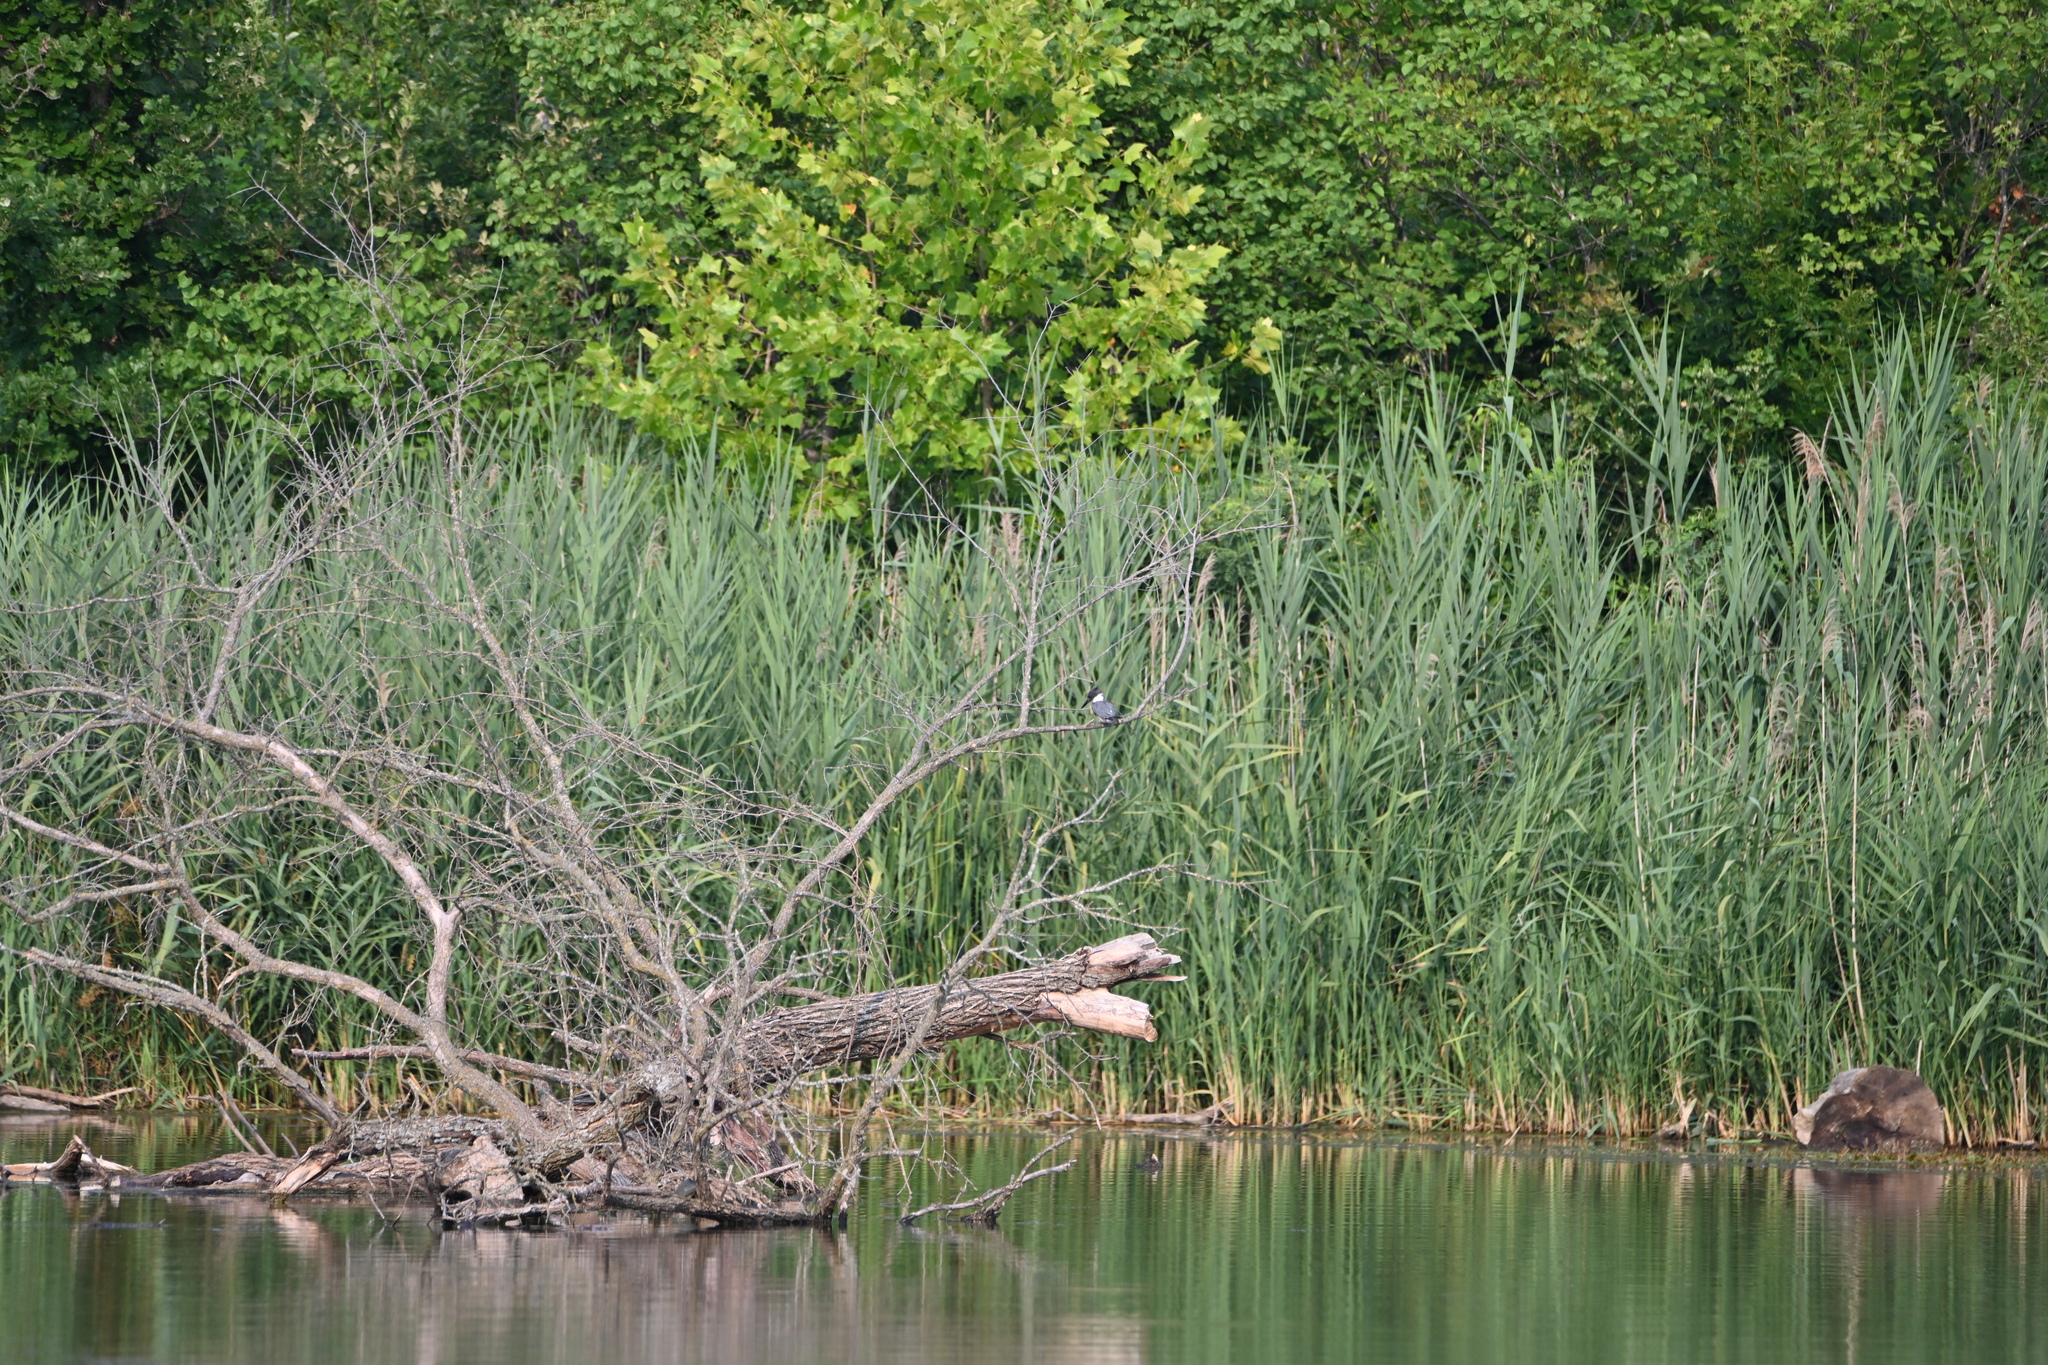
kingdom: Animalia
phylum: Chordata
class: Aves
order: Coraciiformes
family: Alcedinidae
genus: Megaceryle
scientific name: Megaceryle alcyon
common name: Belted kingfisher
